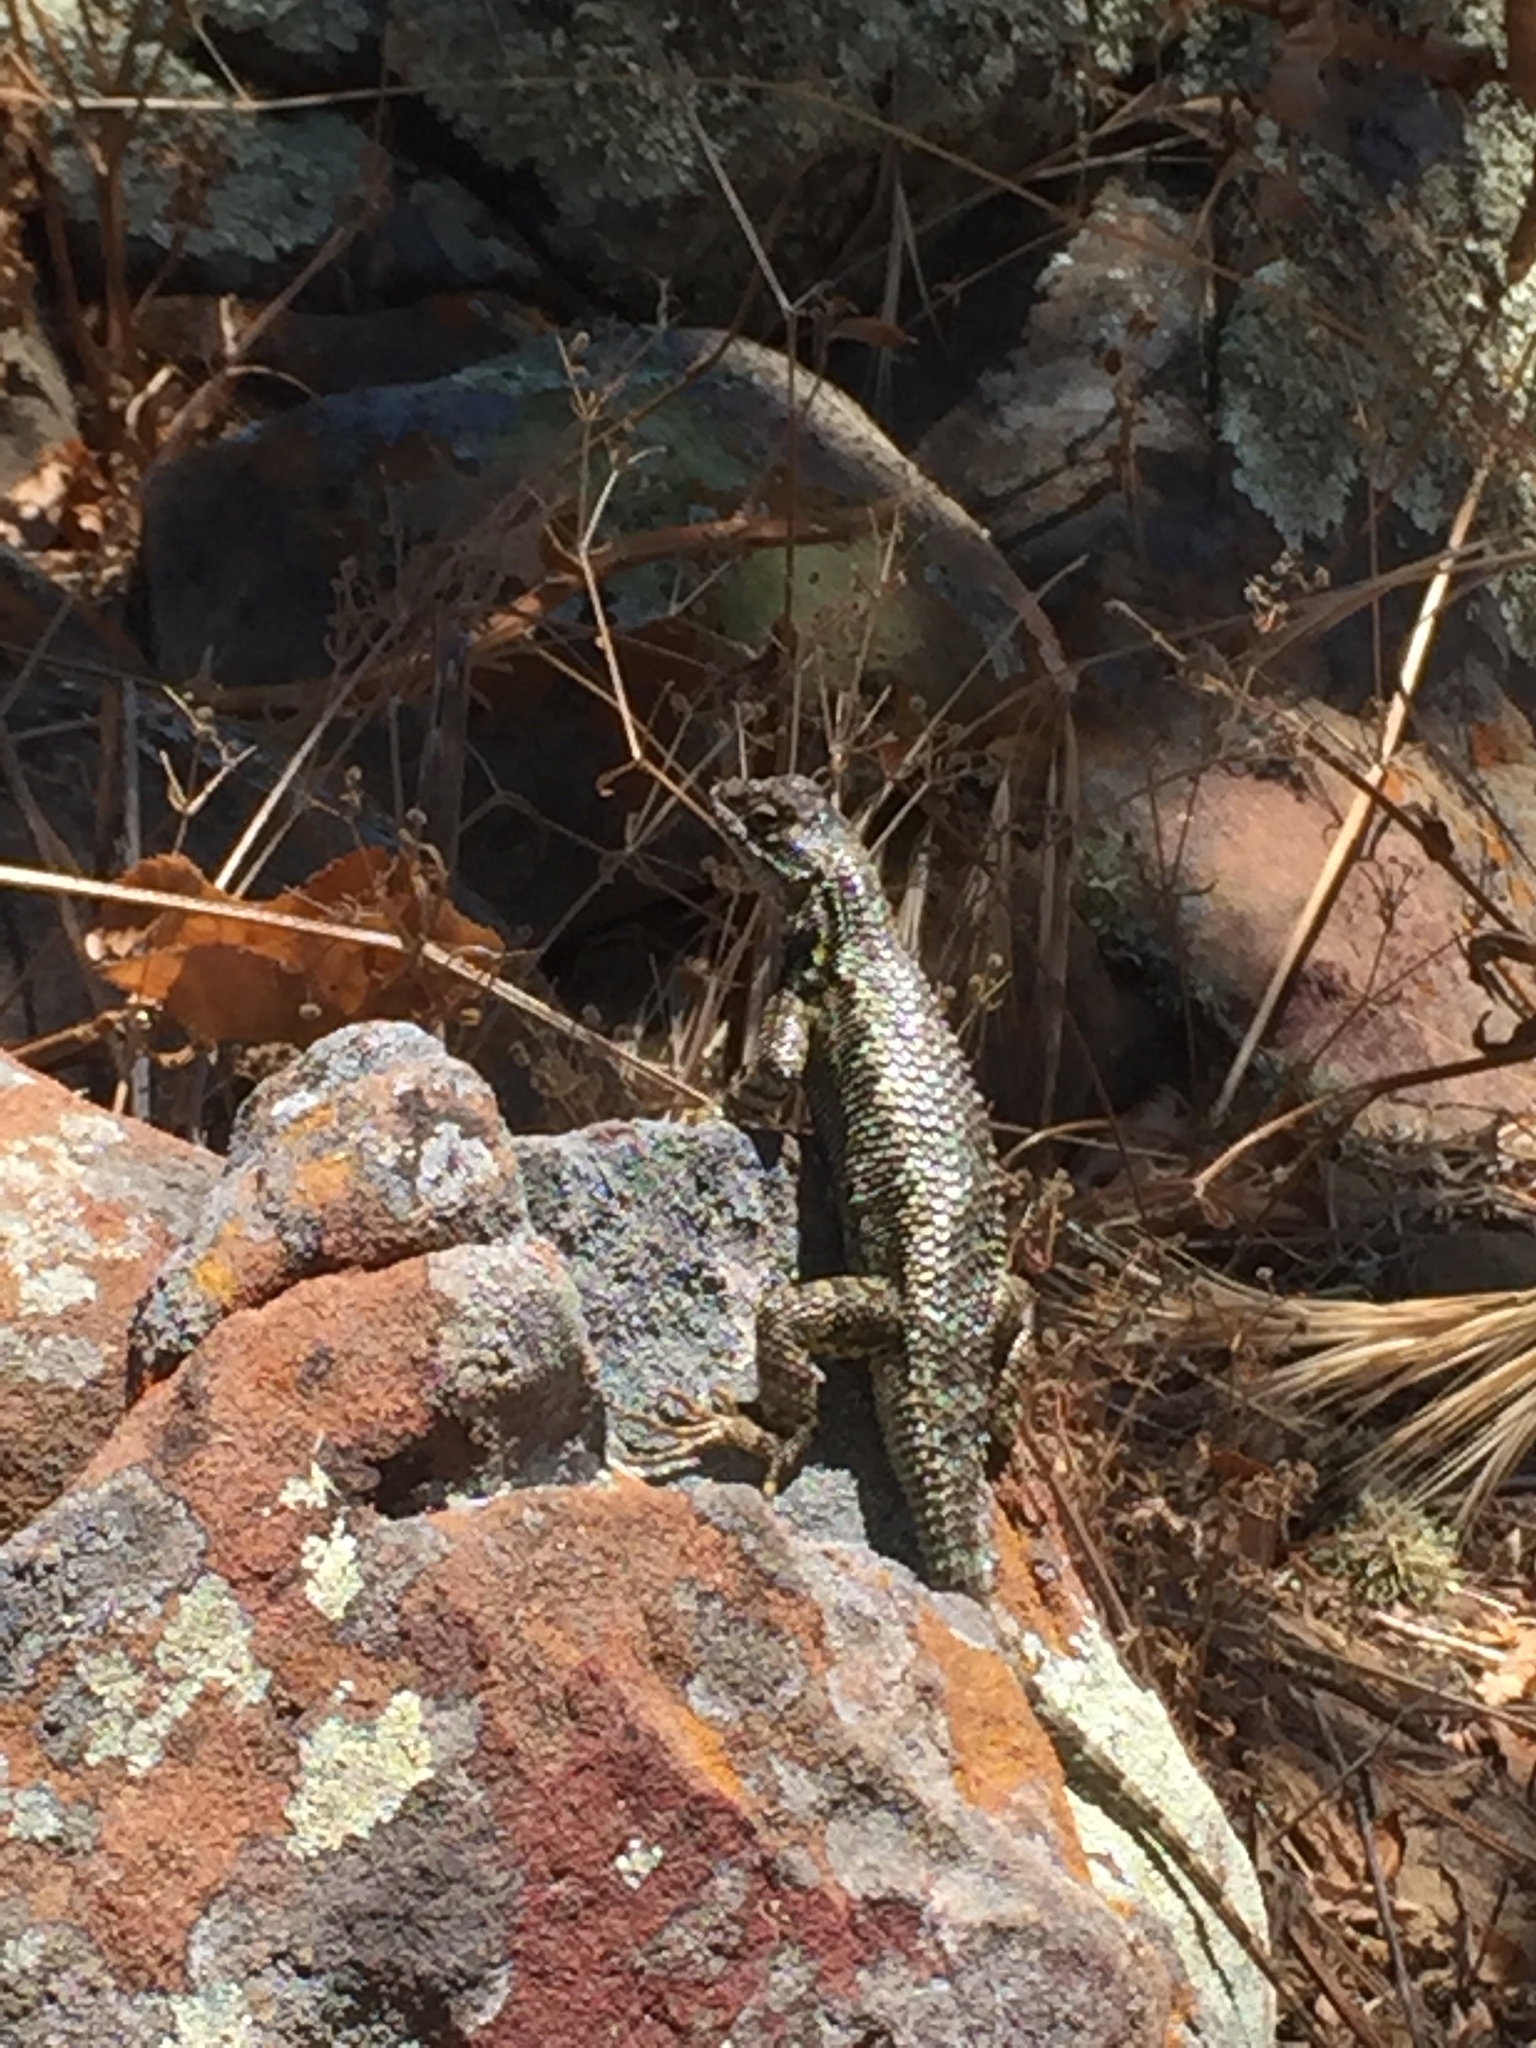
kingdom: Animalia
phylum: Chordata
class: Squamata
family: Phrynosomatidae
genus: Sceloporus
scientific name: Sceloporus occidentalis
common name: Western fence lizard
